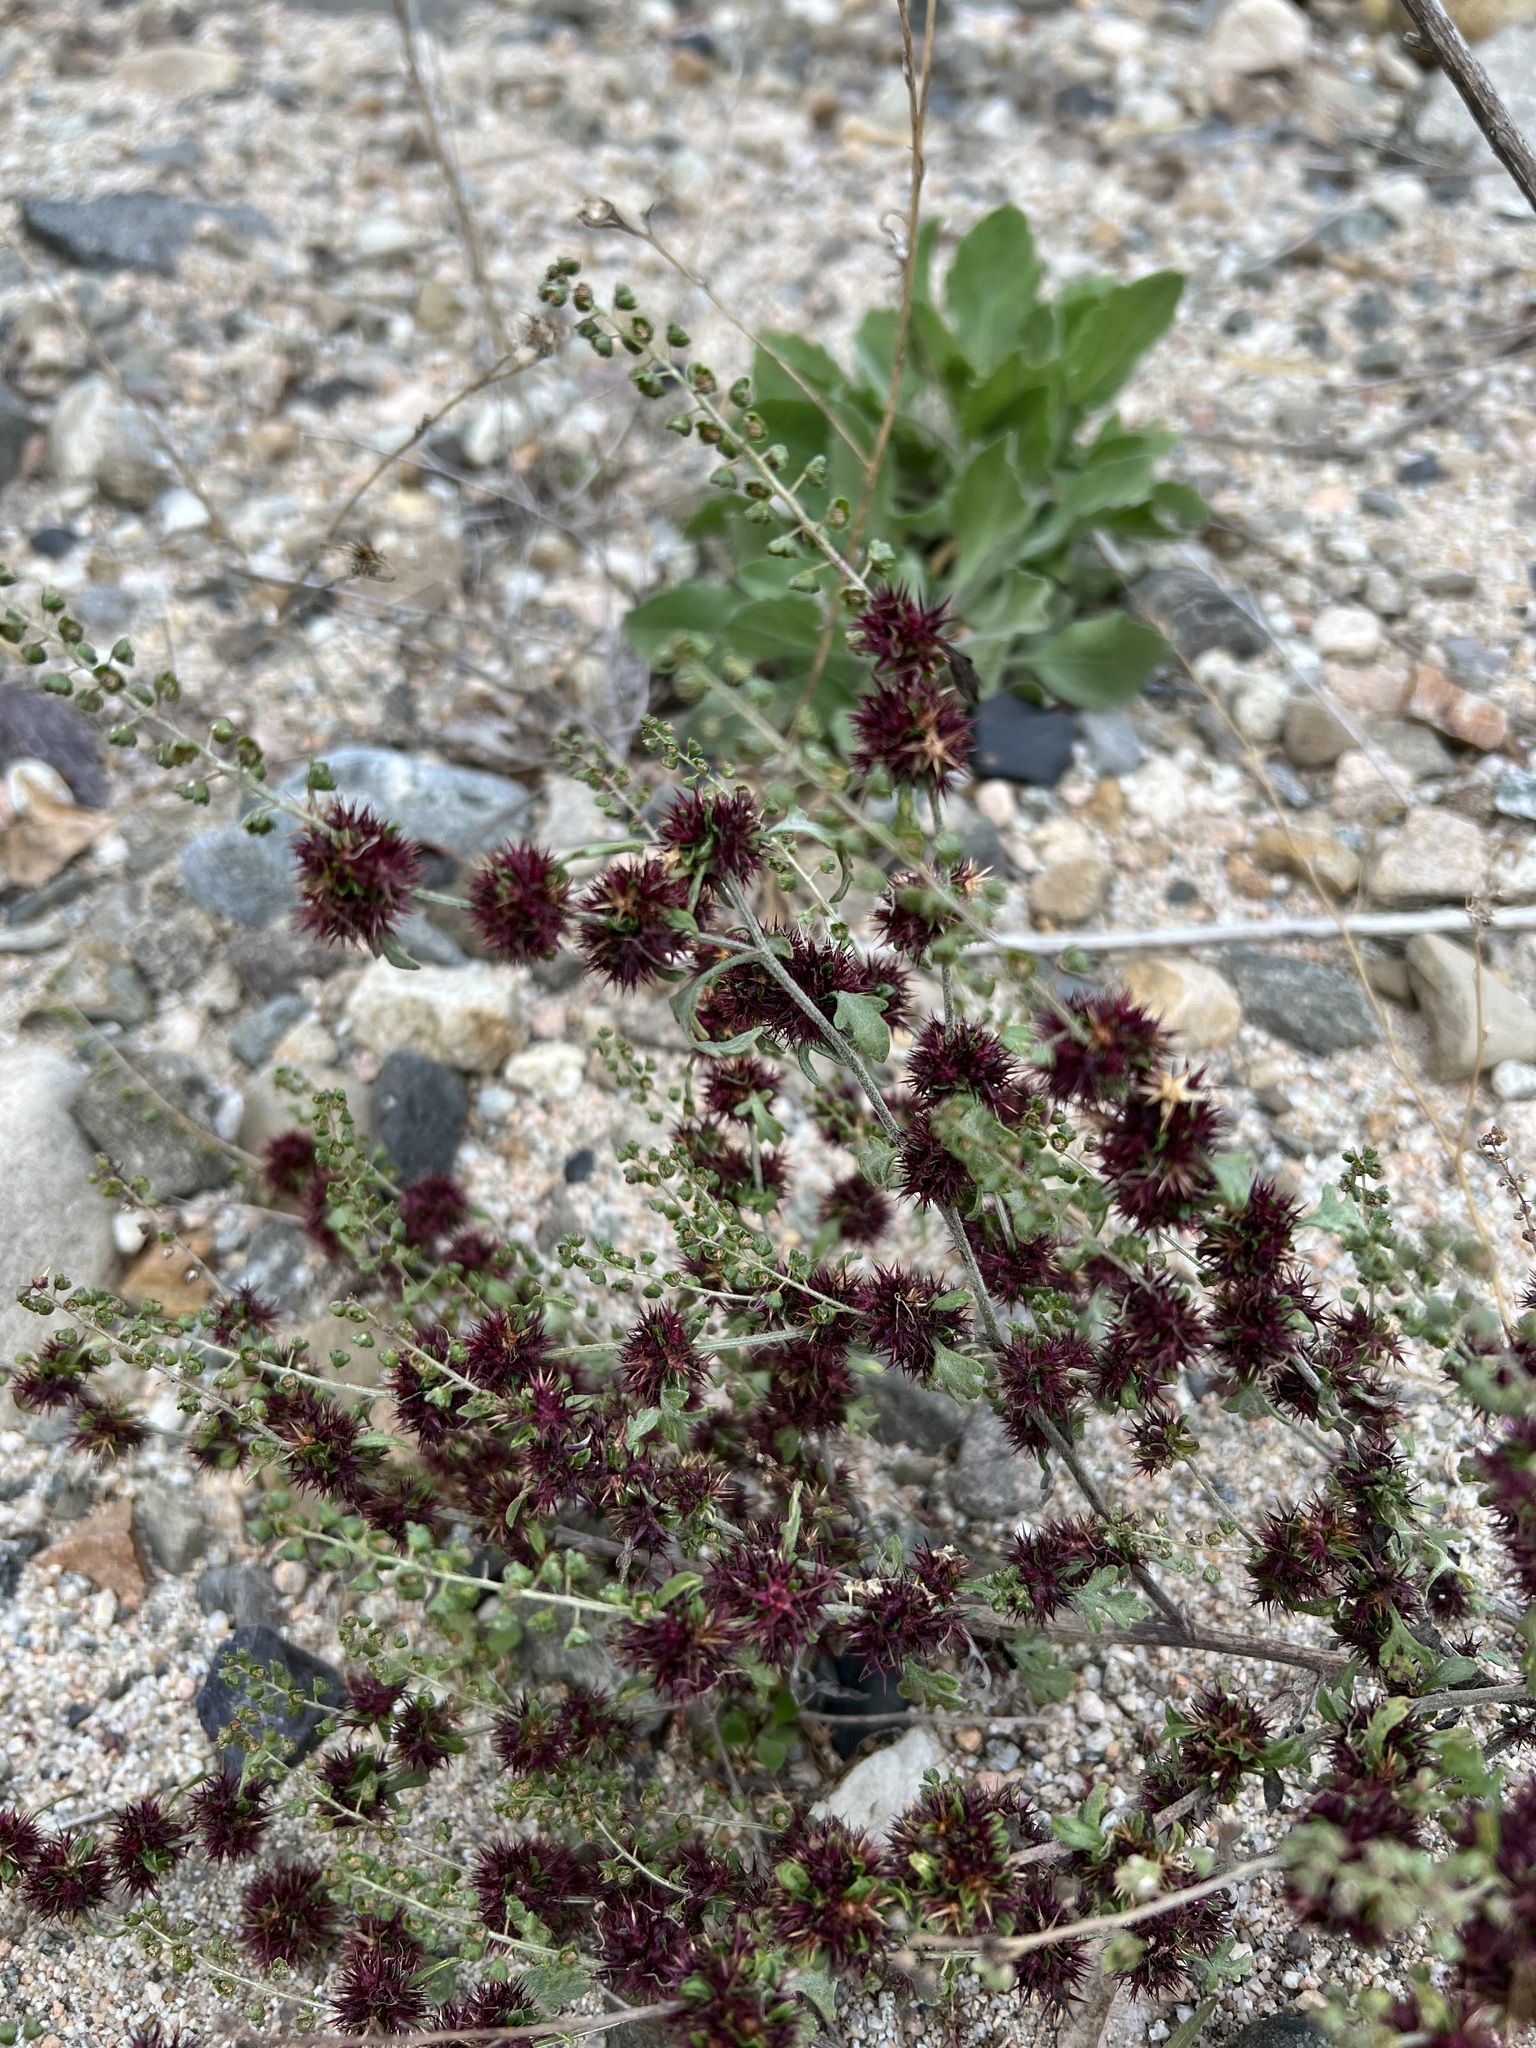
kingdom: Plantae
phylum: Tracheophyta
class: Magnoliopsida
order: Asterales
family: Asteraceae
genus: Ambrosia
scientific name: Ambrosia acanthicarpa
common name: Hooker's bur ragweed
